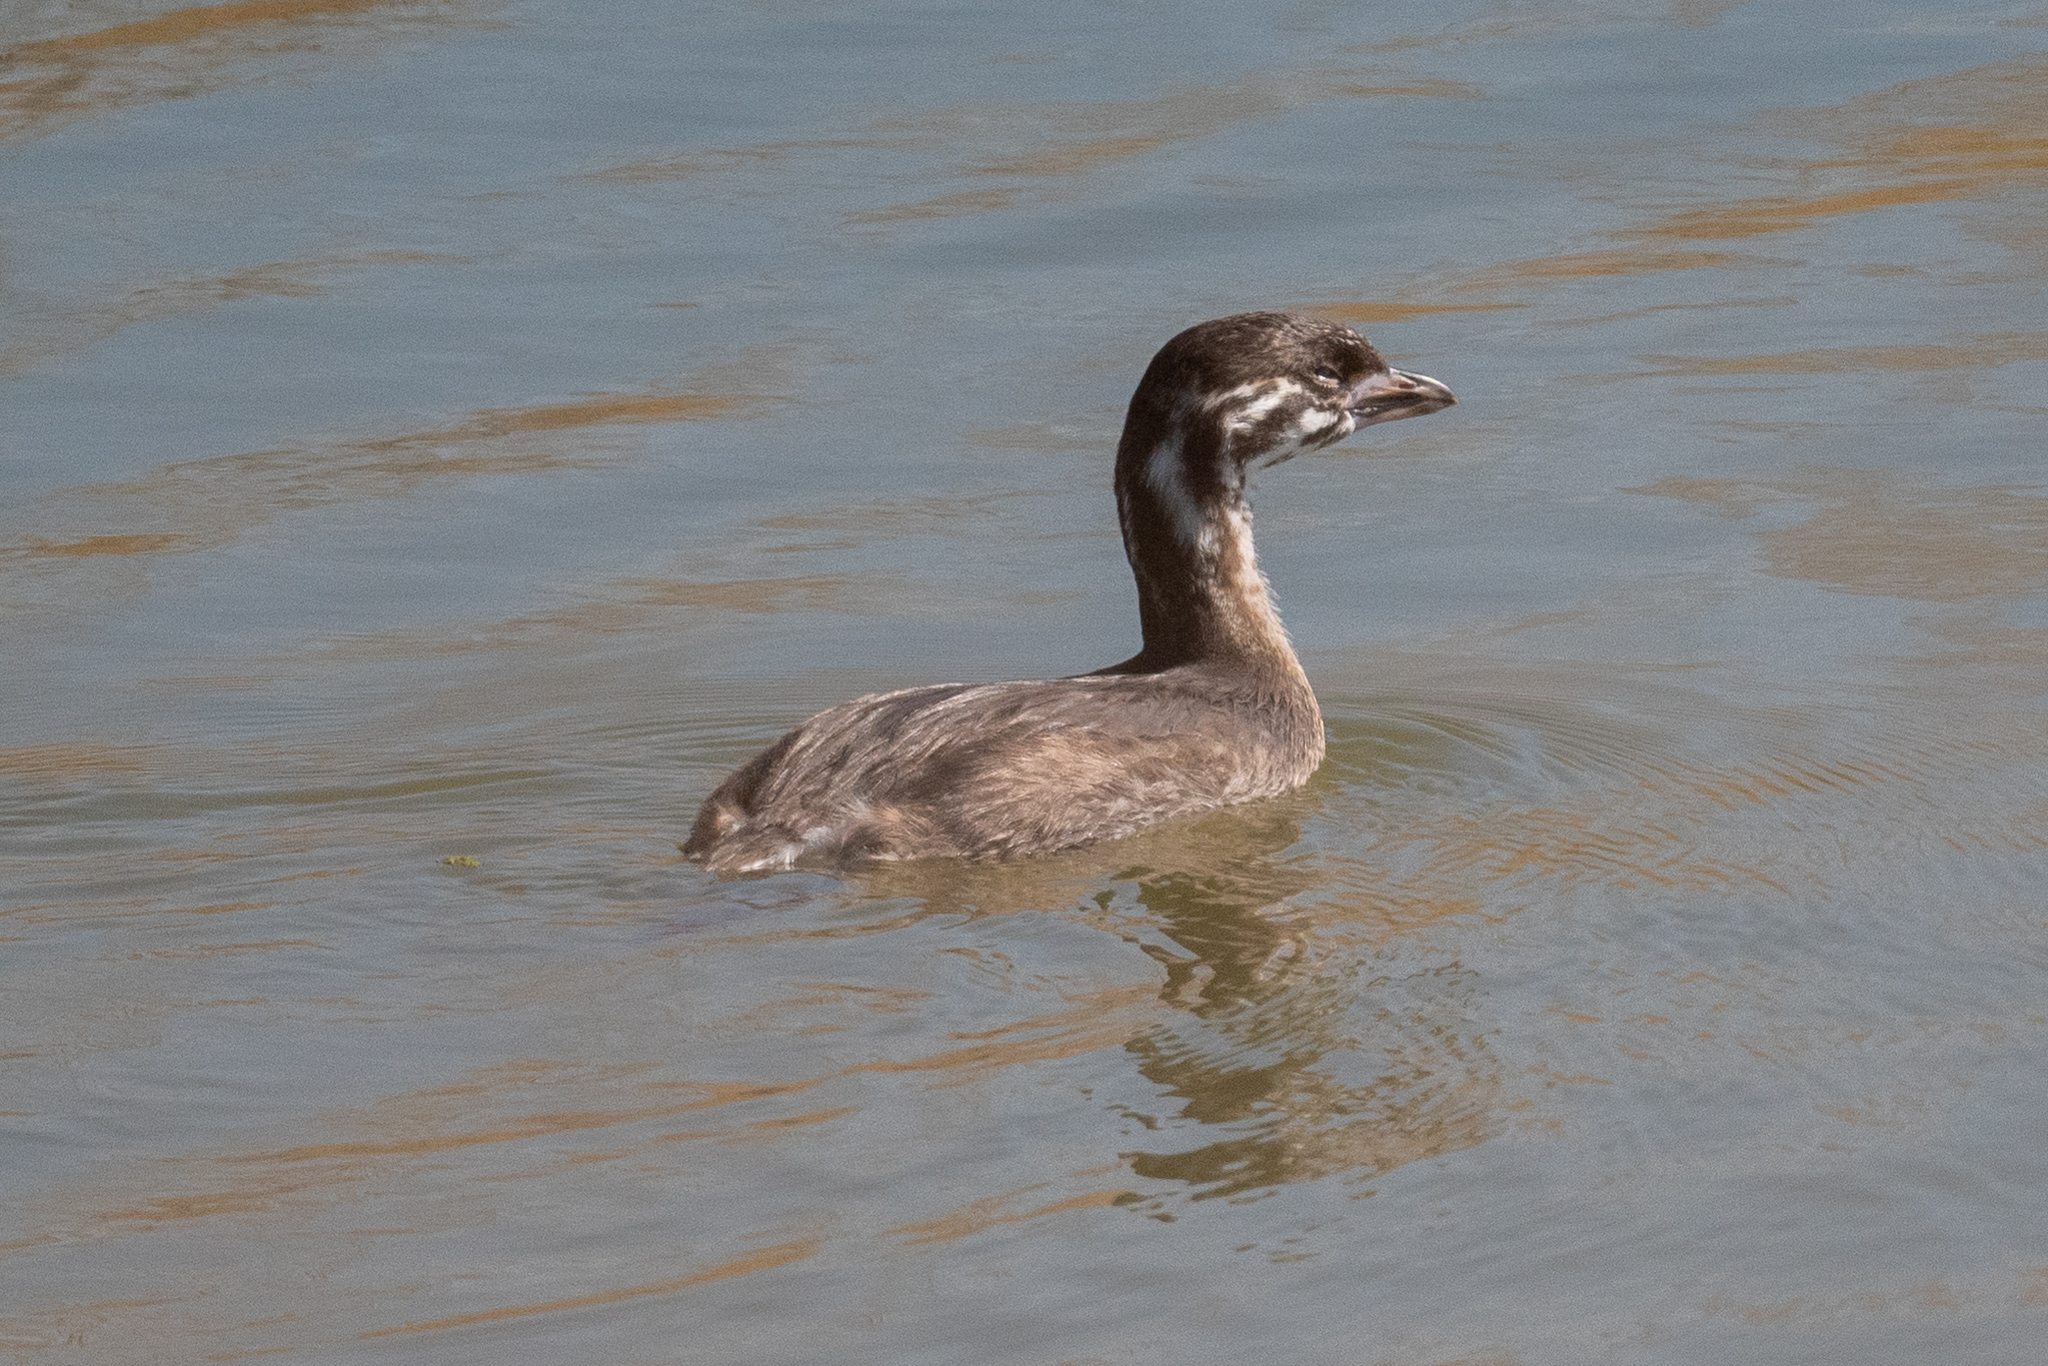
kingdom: Animalia
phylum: Chordata
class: Aves
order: Podicipediformes
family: Podicipedidae
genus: Podilymbus
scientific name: Podilymbus podiceps
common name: Pied-billed grebe
